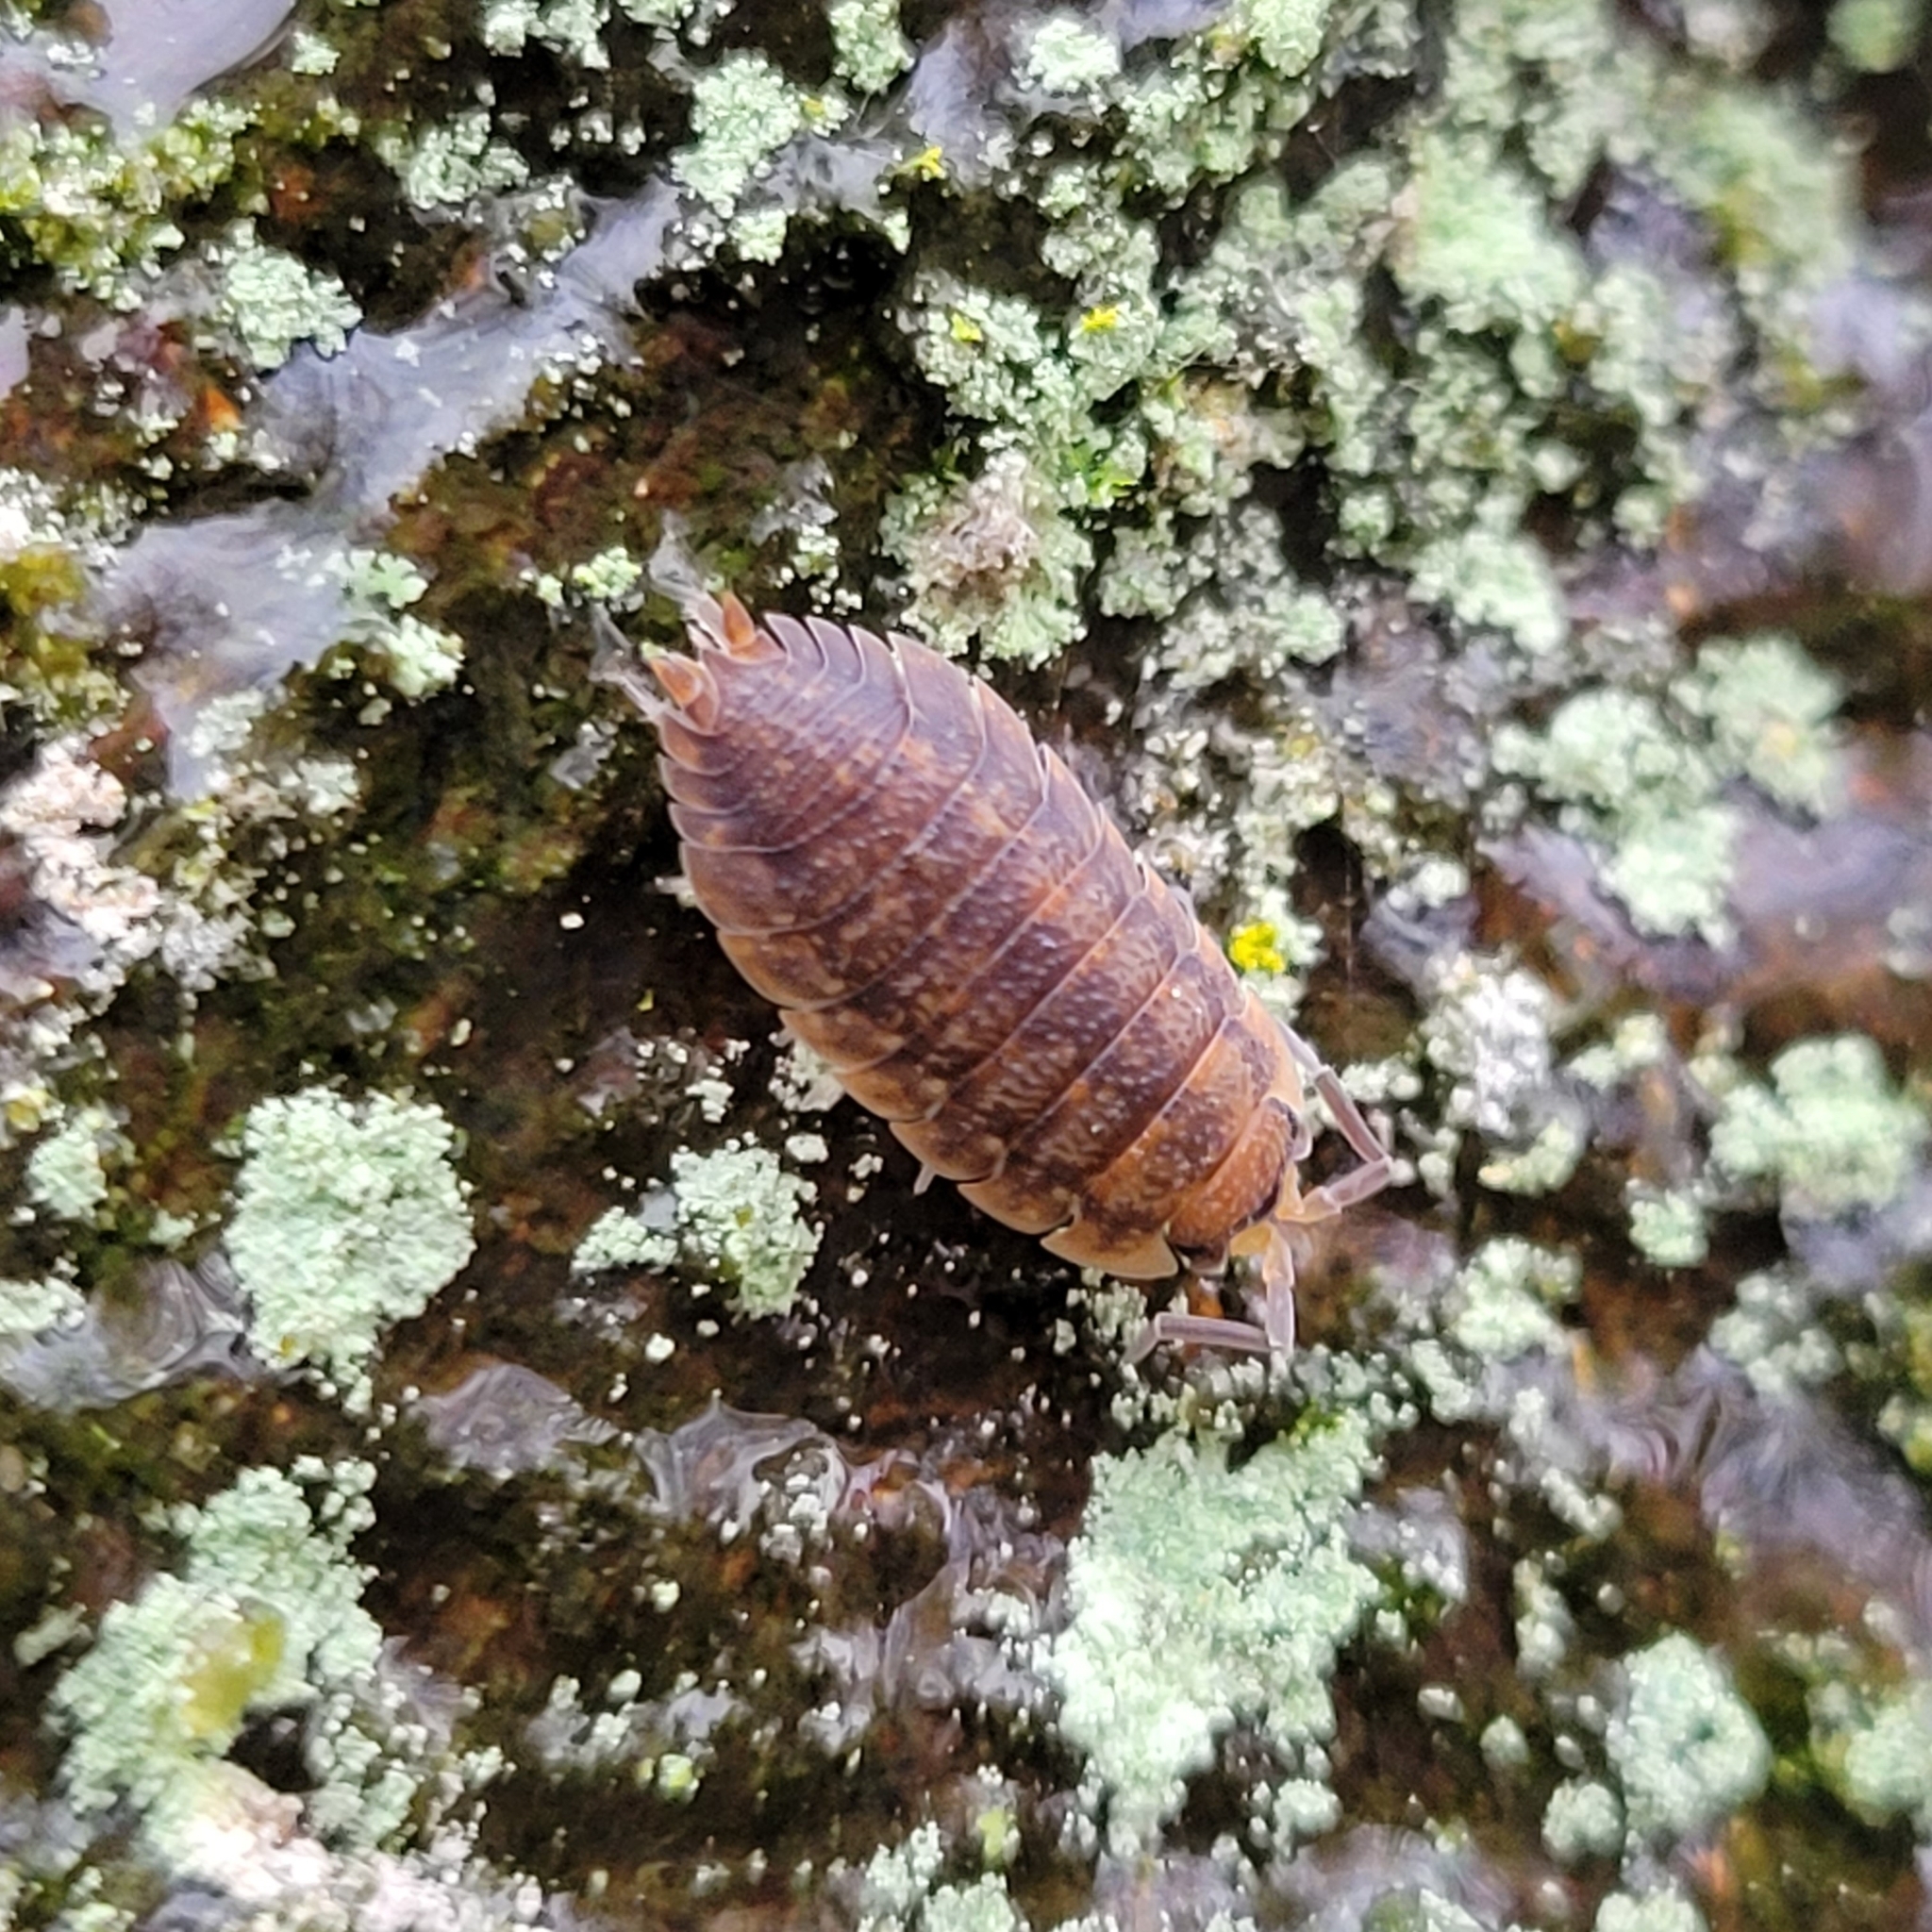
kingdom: Animalia
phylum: Arthropoda
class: Malacostraca
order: Isopoda
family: Porcellionidae
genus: Porcellio
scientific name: Porcellio scaber
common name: Common rough woodlouse
